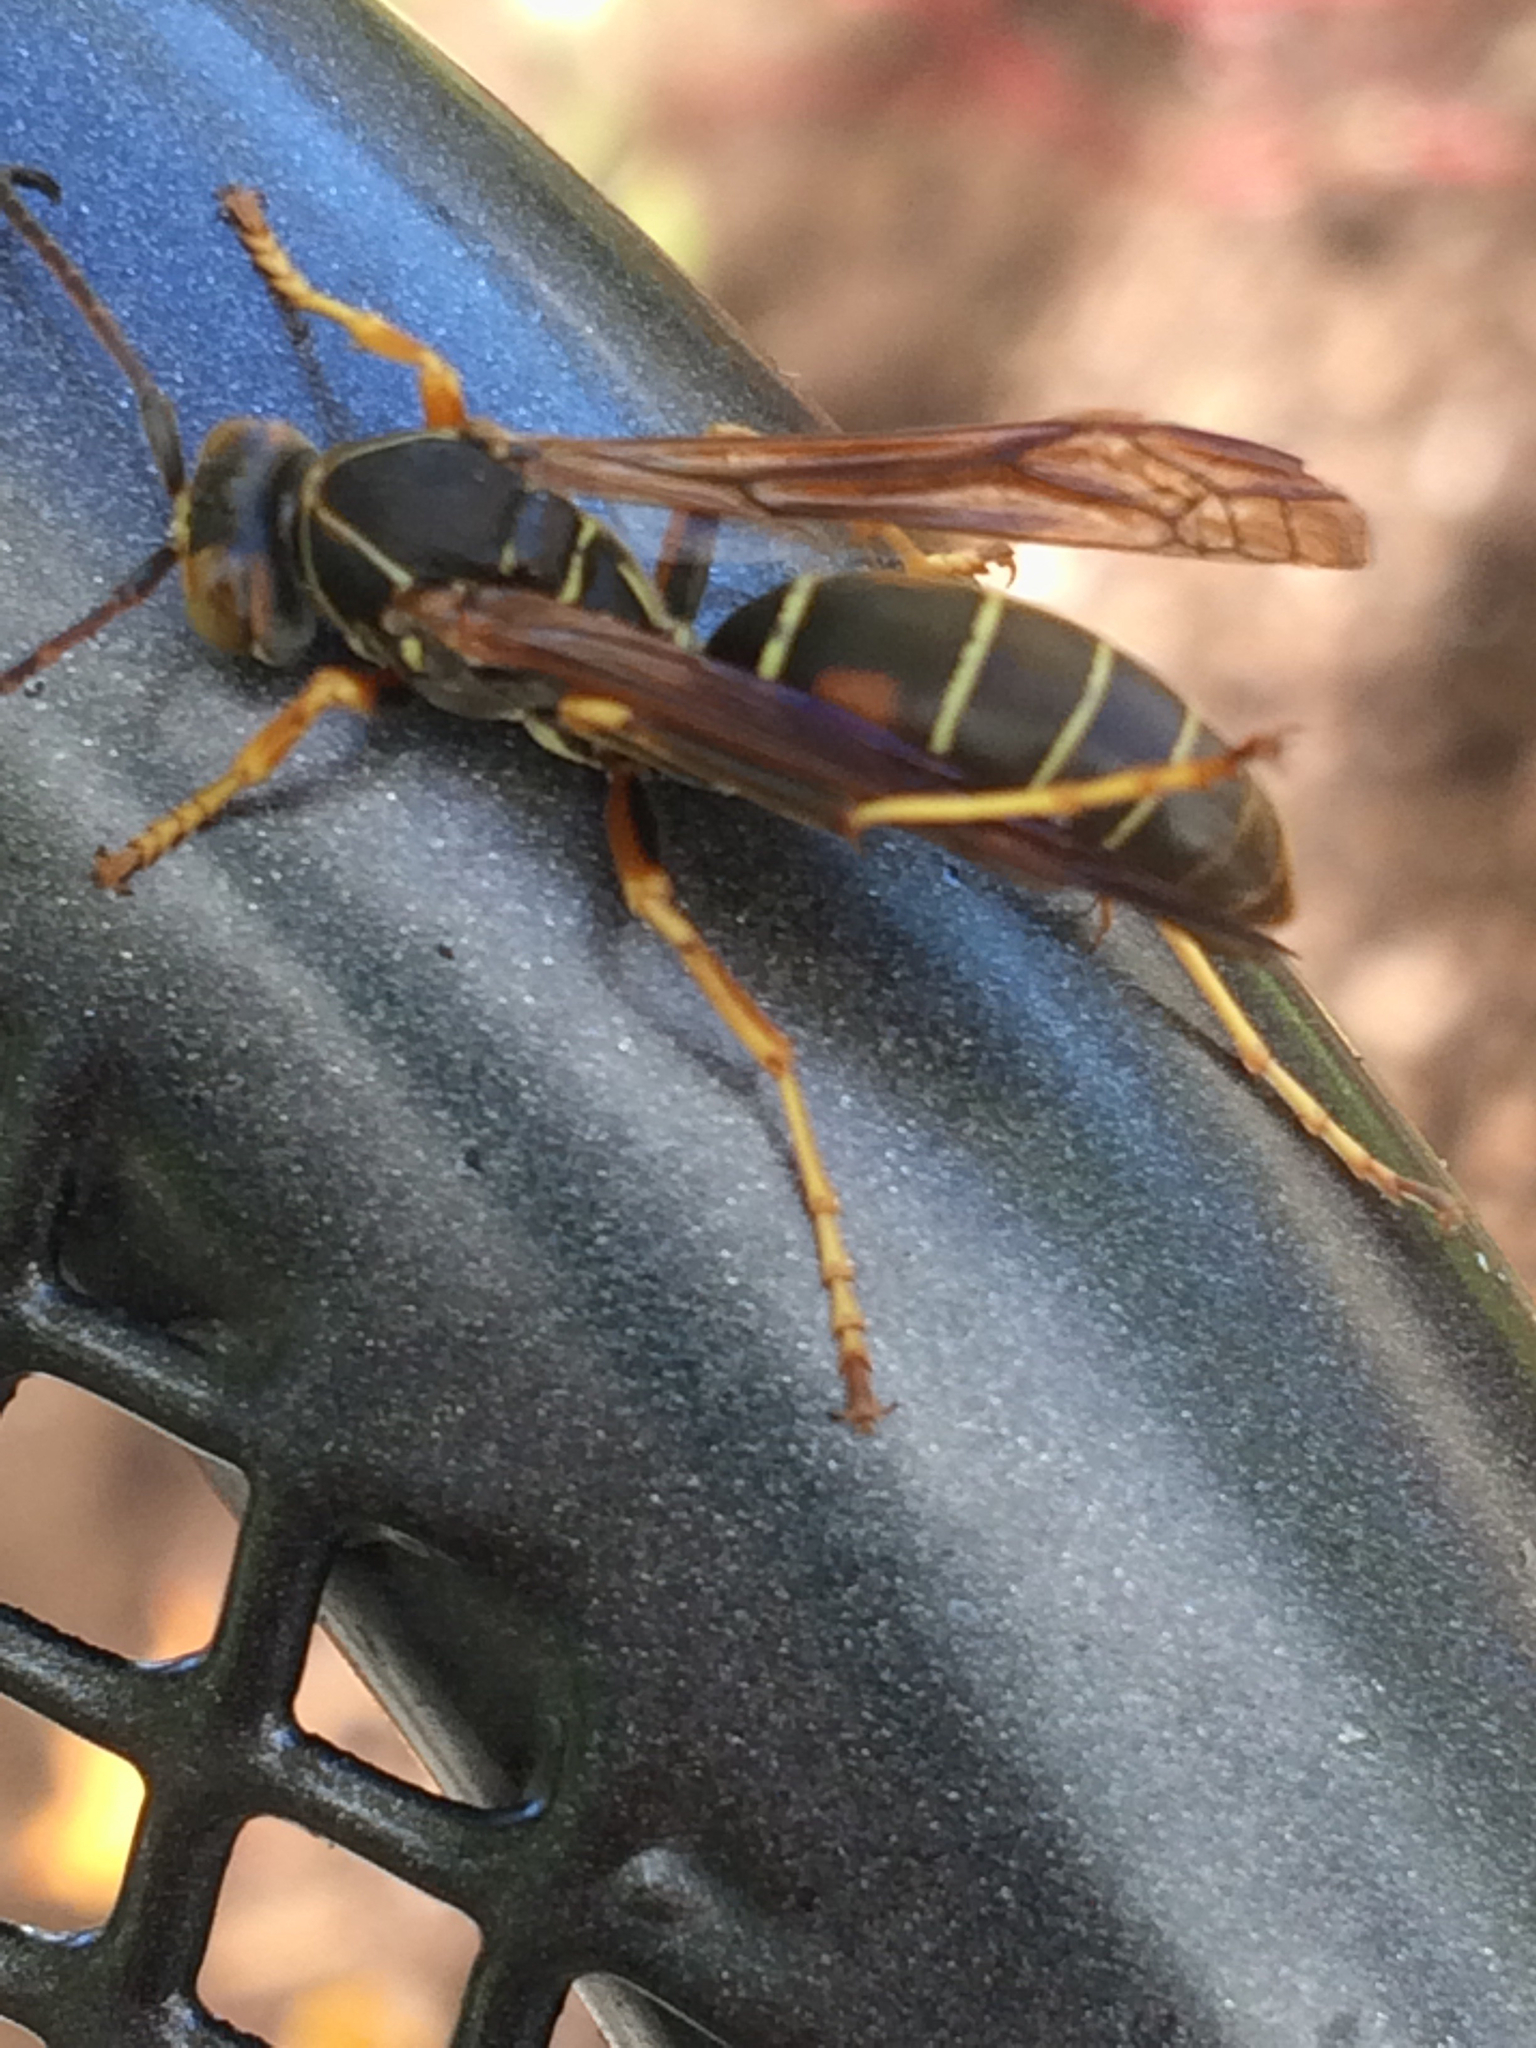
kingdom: Animalia
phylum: Arthropoda
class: Insecta
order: Hymenoptera
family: Eumenidae
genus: Polistes
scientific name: Polistes fuscatus
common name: Dark paper wasp
